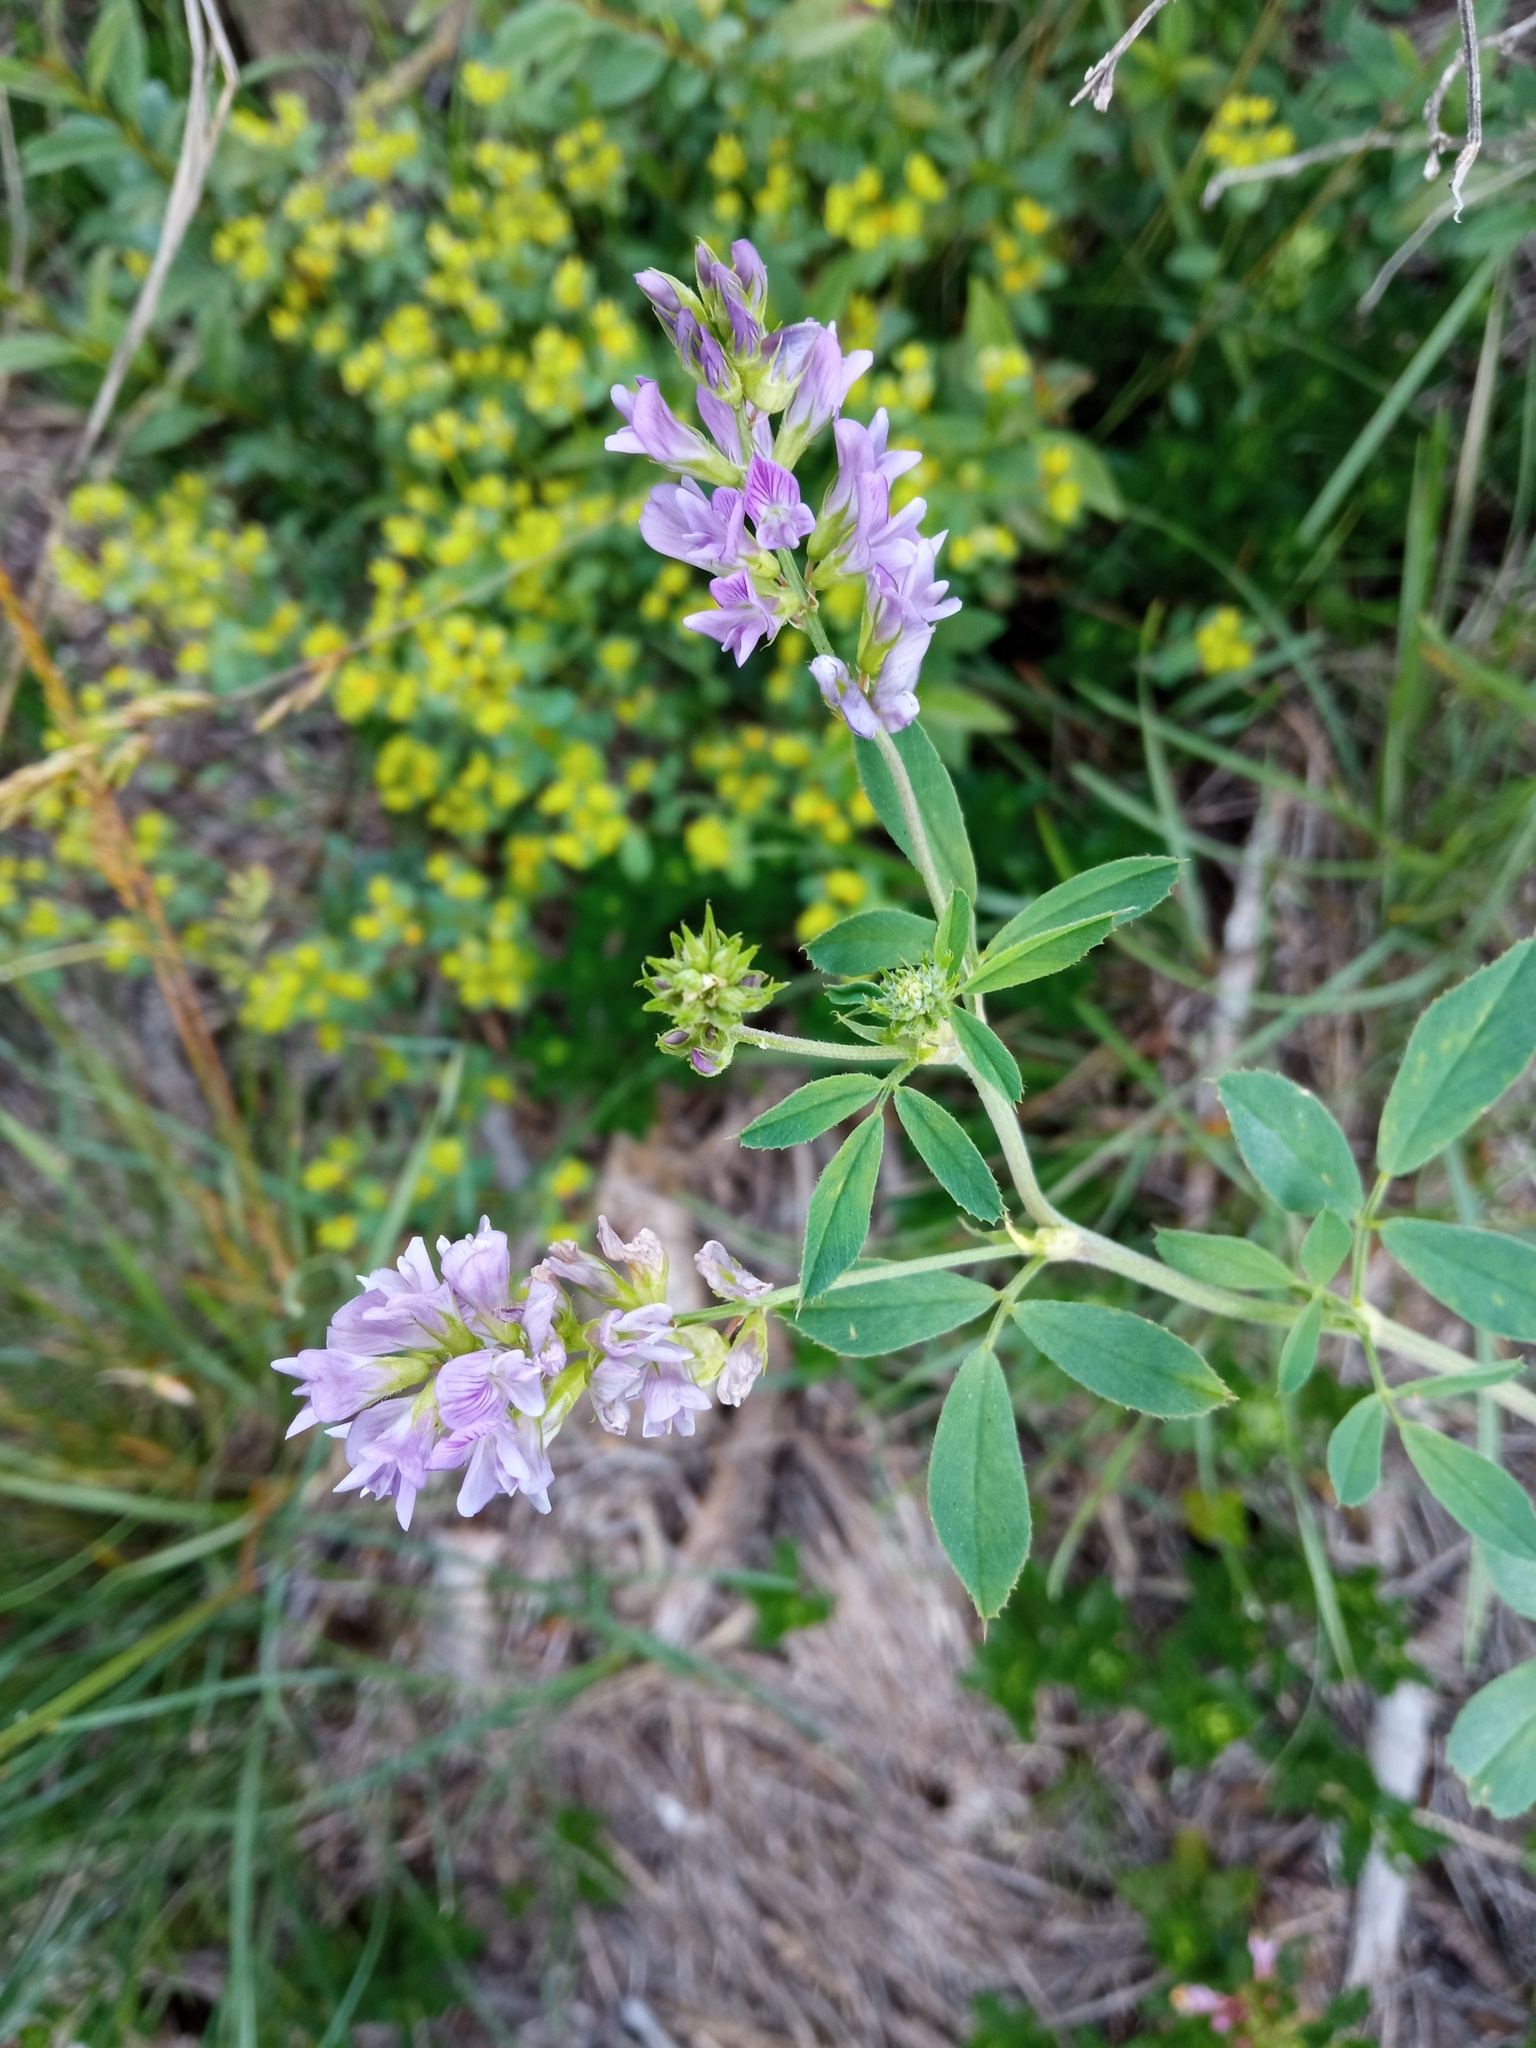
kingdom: Plantae
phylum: Tracheophyta
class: Magnoliopsida
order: Fabales
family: Fabaceae
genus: Medicago
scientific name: Medicago sativa
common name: Alfalfa
